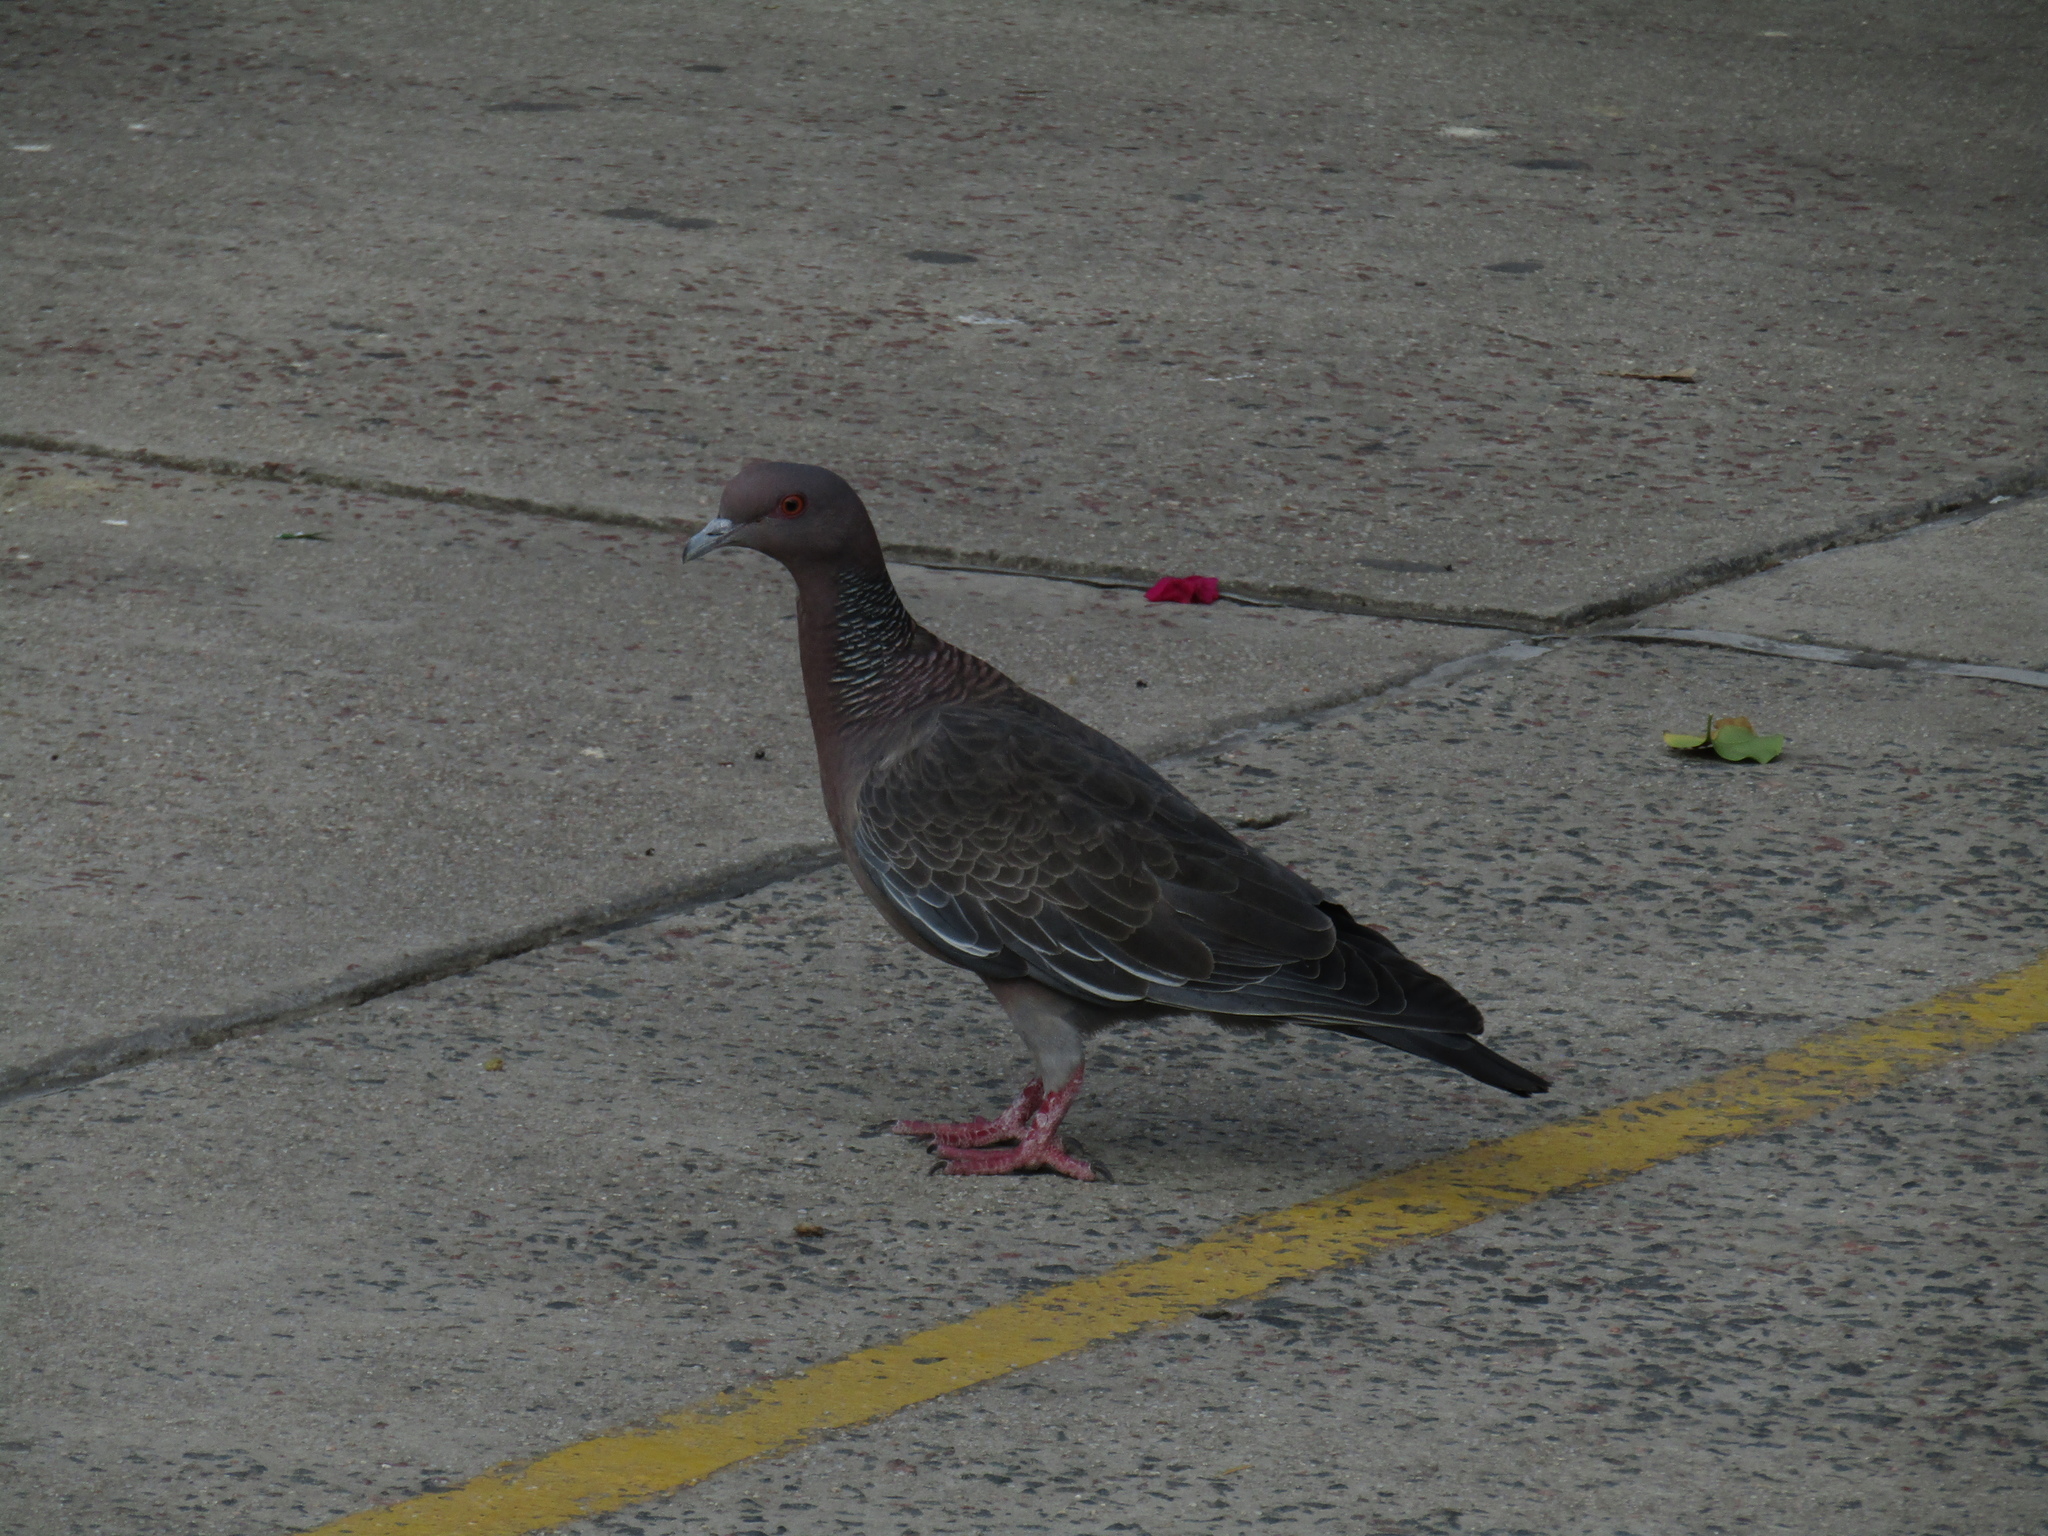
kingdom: Animalia
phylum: Chordata
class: Aves
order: Columbiformes
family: Columbidae
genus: Patagioenas
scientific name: Patagioenas picazuro
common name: Picazuro pigeon
